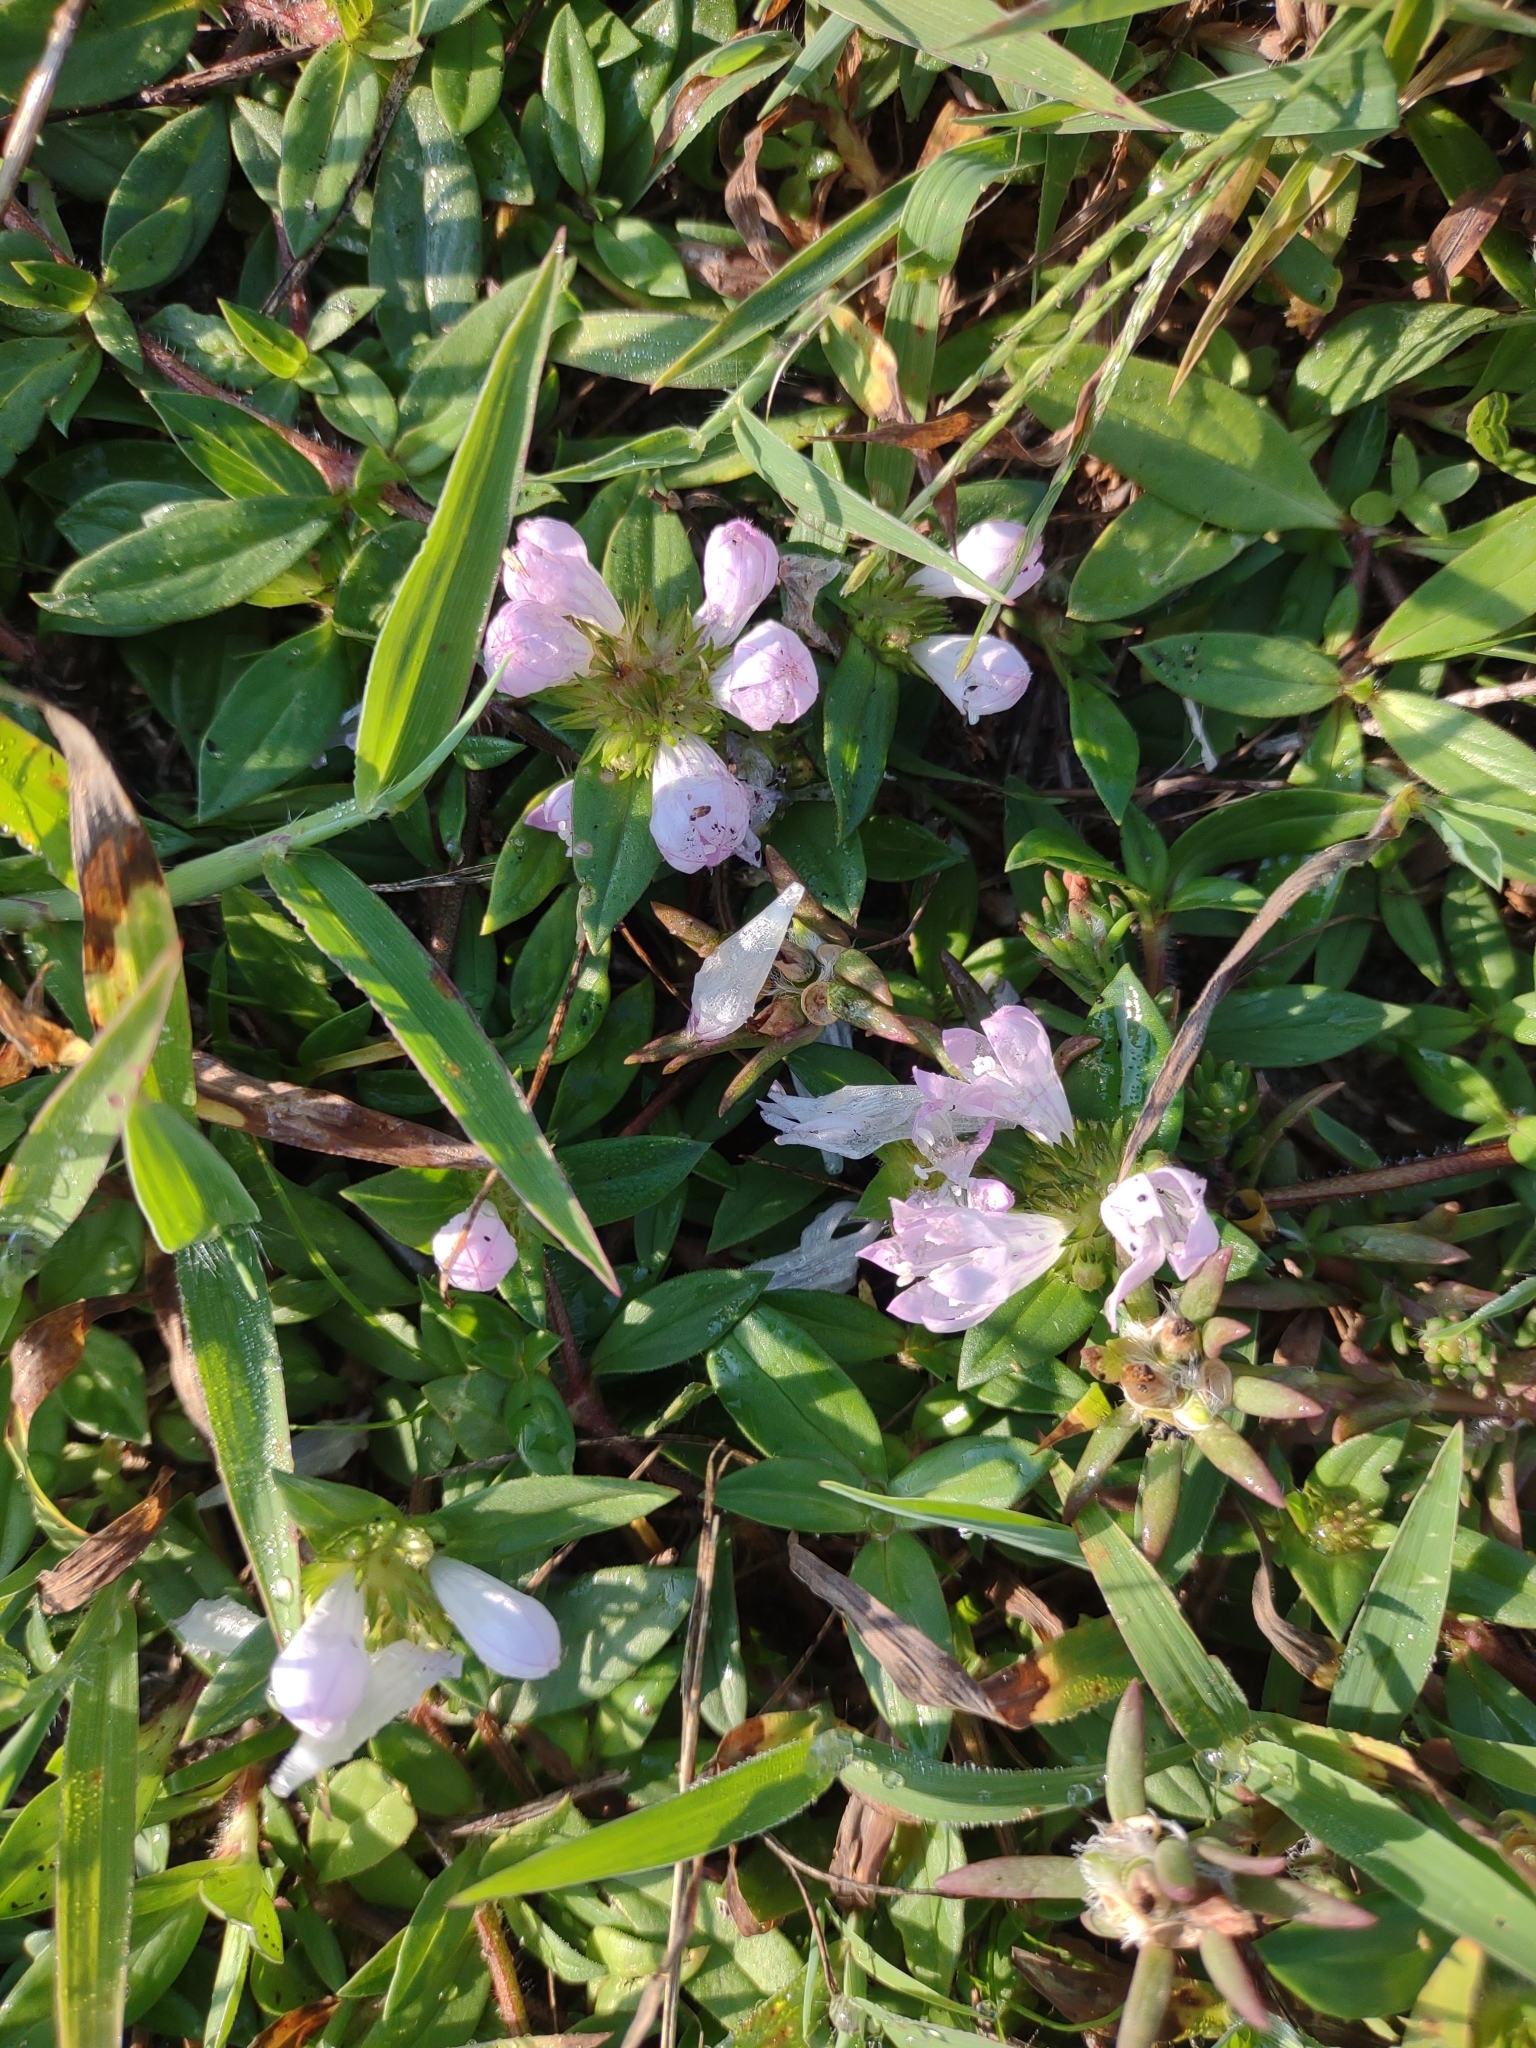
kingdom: Plantae
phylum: Tracheophyta
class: Magnoliopsida
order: Gentianales
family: Rubiaceae
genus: Richardia
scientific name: Richardia grandiflora
